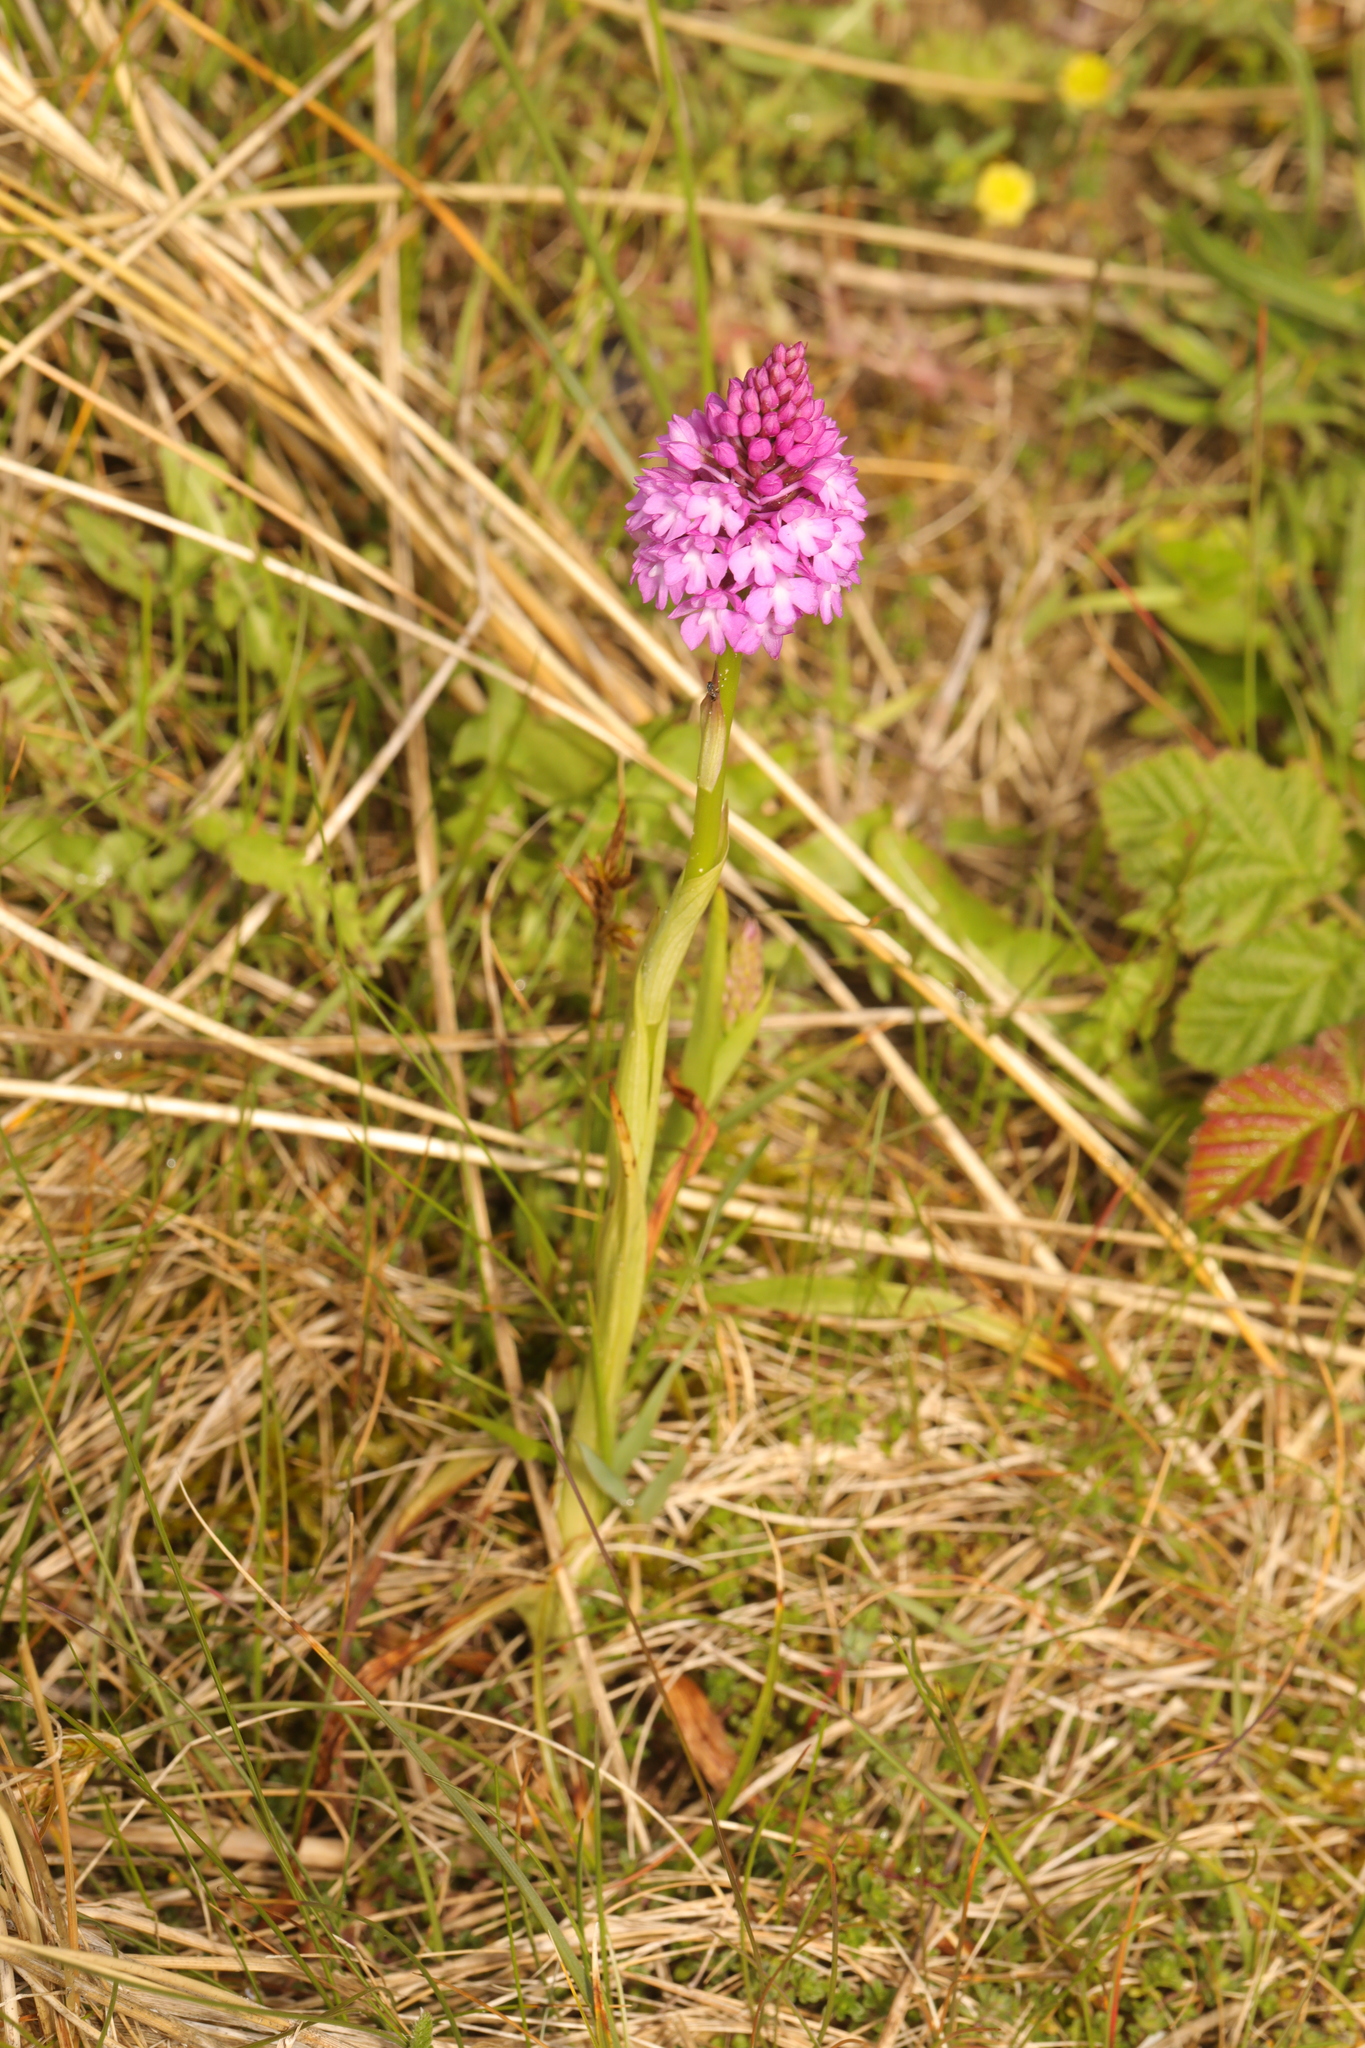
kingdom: Plantae
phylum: Tracheophyta
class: Liliopsida
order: Asparagales
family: Orchidaceae
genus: Anacamptis
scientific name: Anacamptis pyramidalis
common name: Pyramidal orchid
